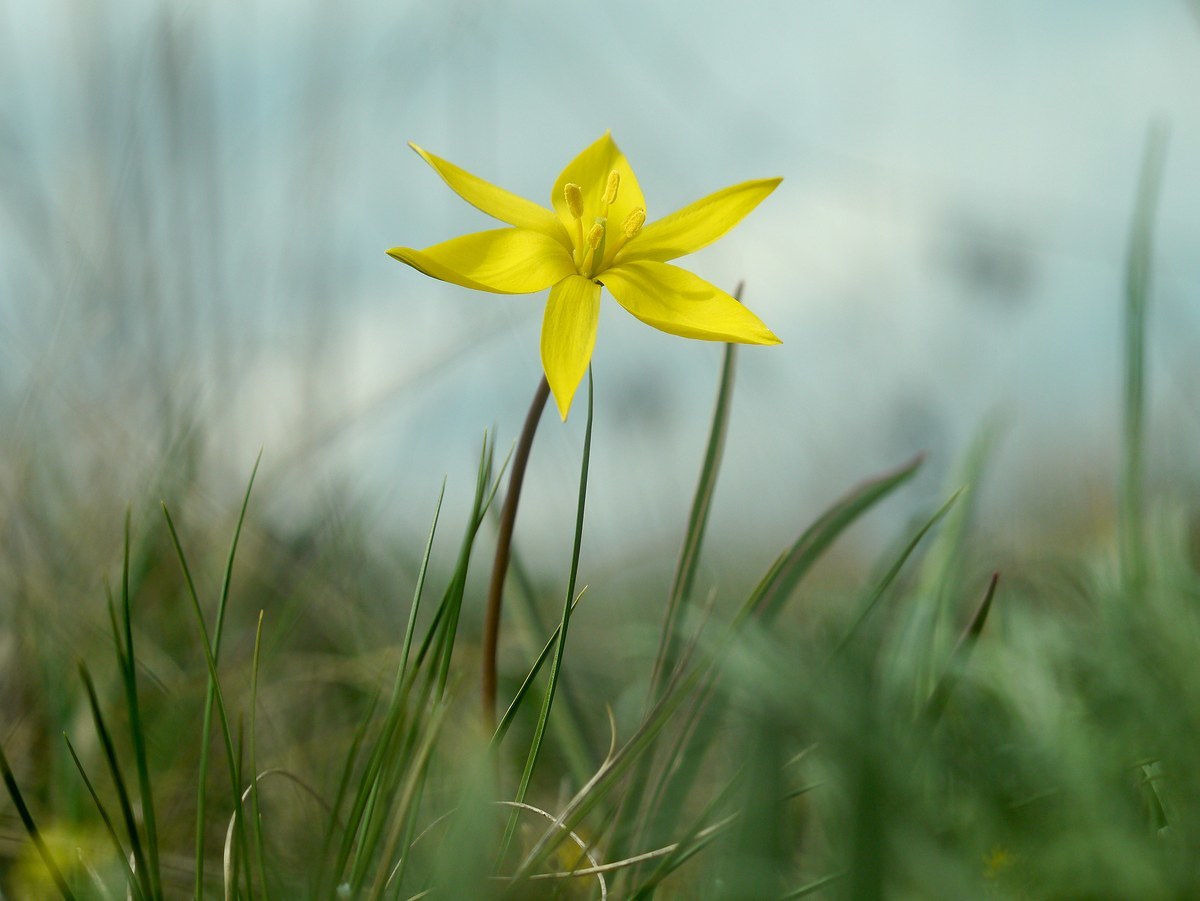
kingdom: Plantae
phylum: Tracheophyta
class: Liliopsida
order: Liliales
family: Liliaceae
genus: Tulipa
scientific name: Tulipa sylvestris
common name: Wild tulip
